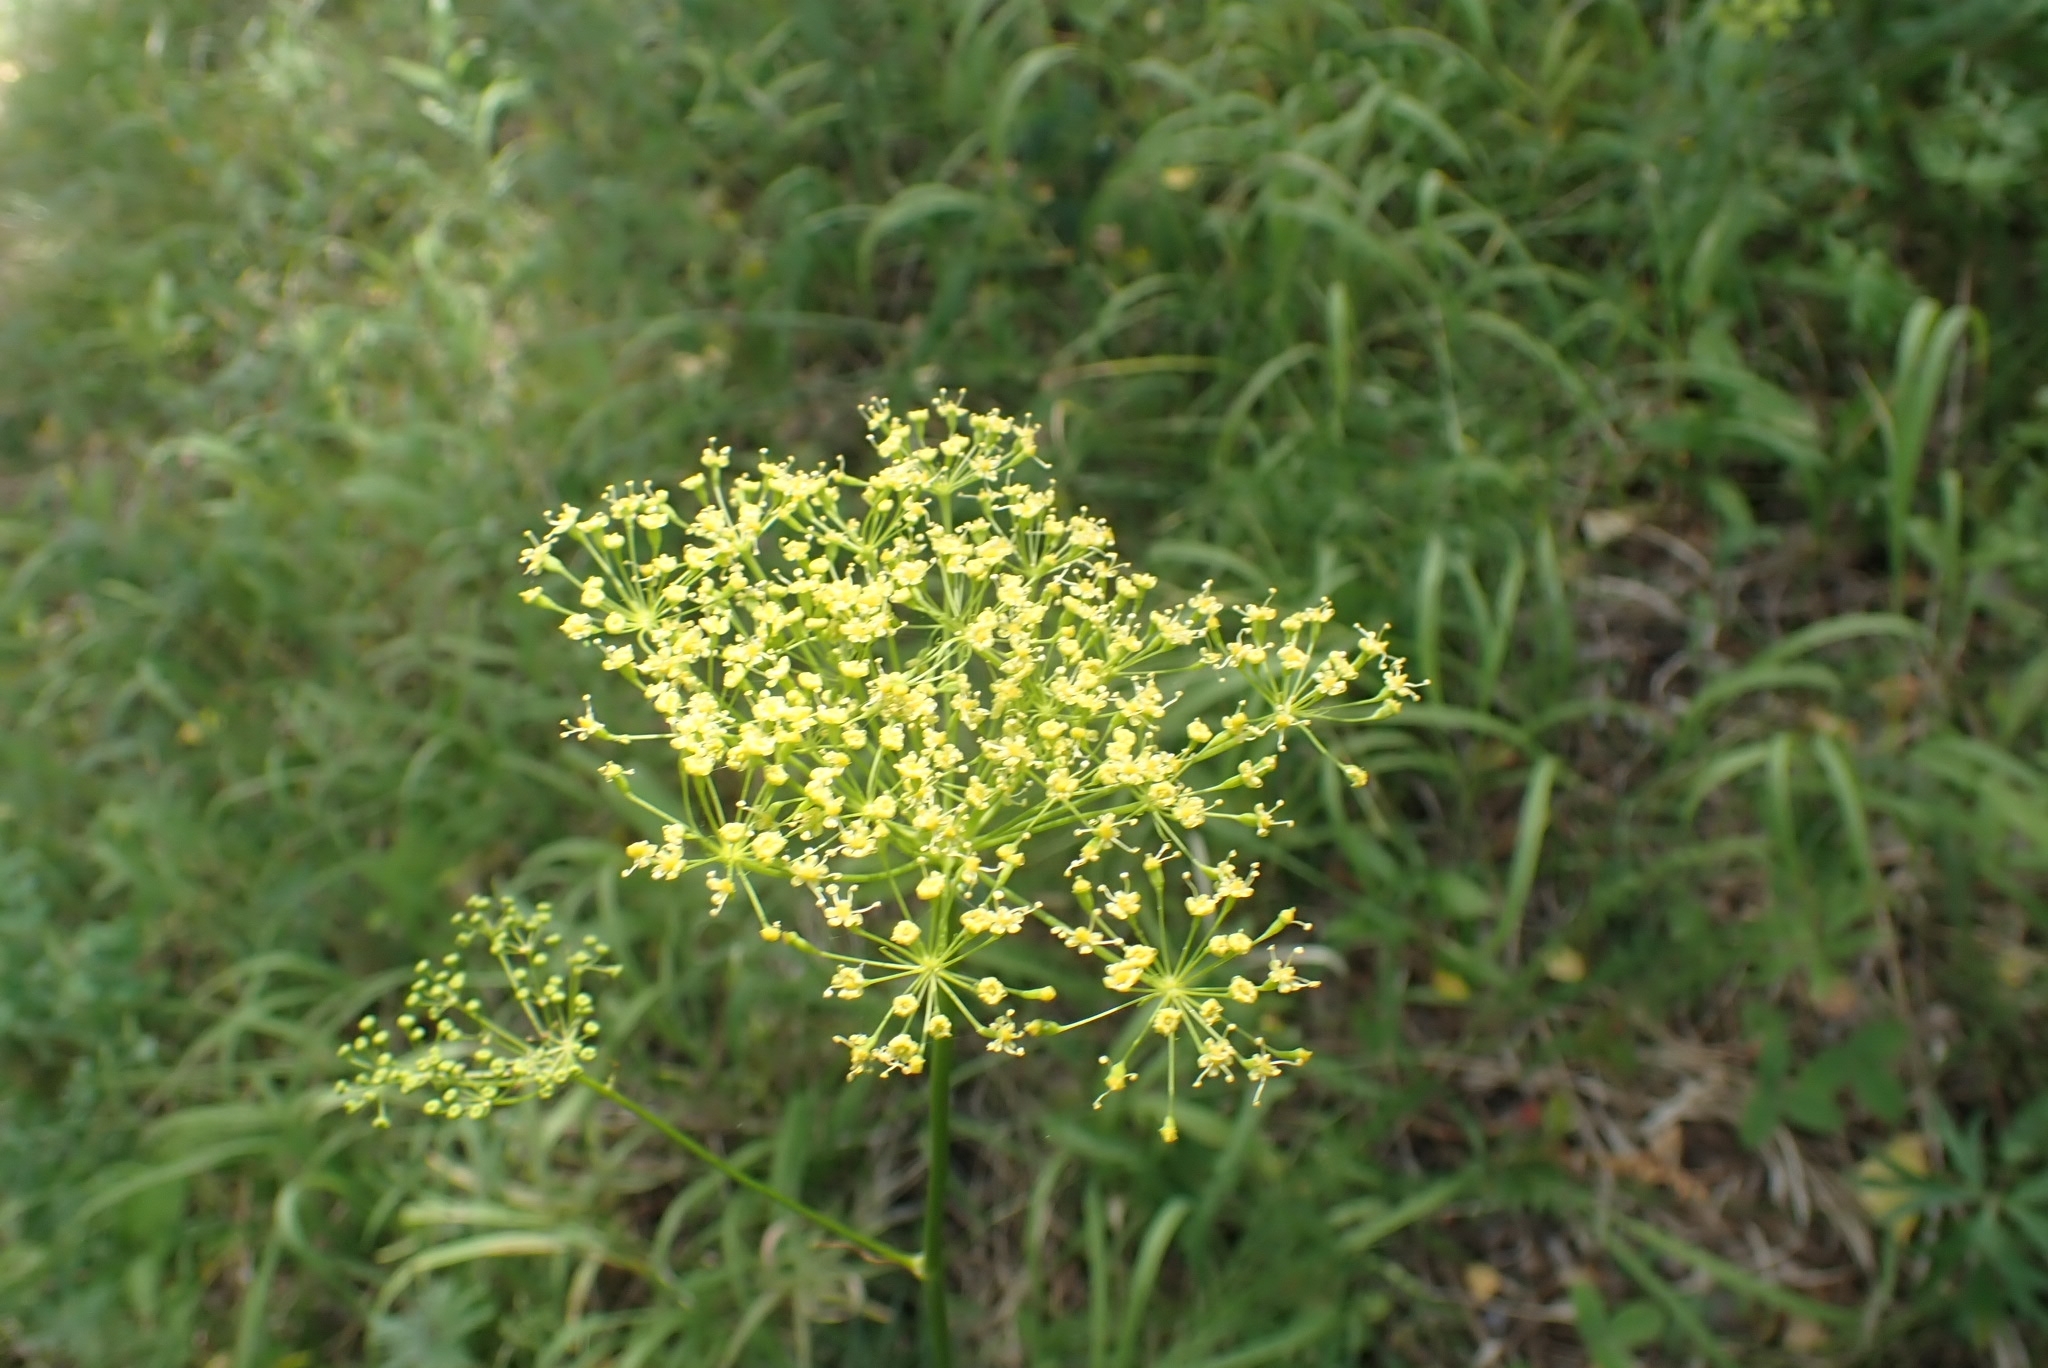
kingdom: Plantae
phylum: Tracheophyta
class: Magnoliopsida
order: Apiales
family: Apiaceae
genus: Peucedanum
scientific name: Peucedanum morisonii
